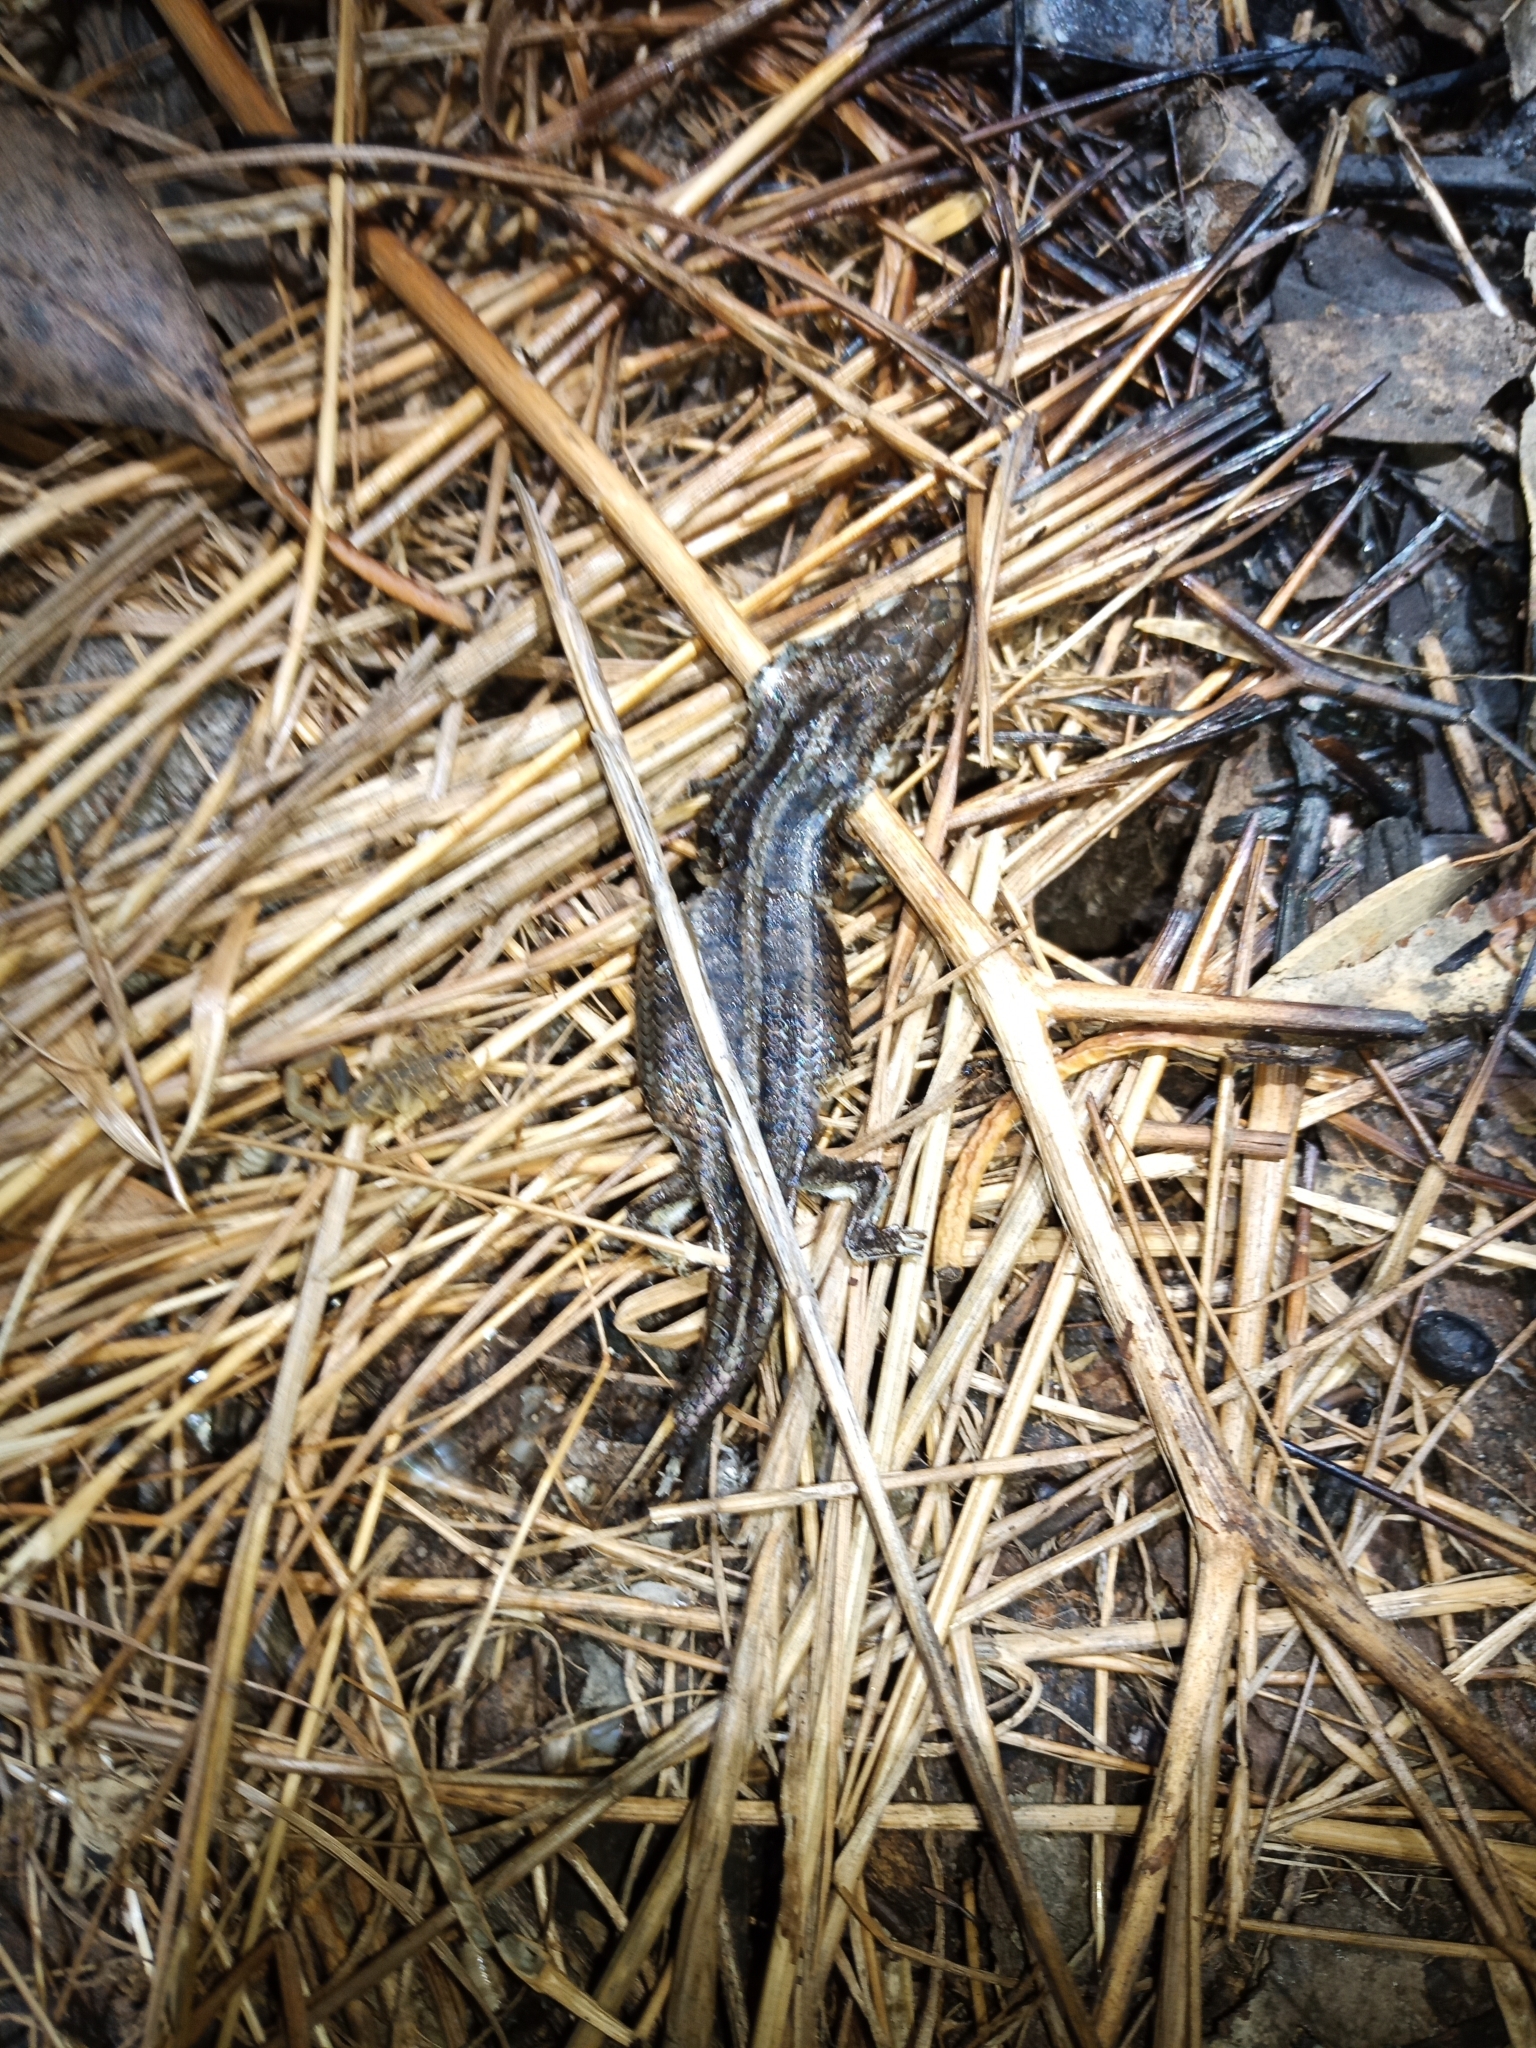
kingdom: Animalia
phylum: Chordata
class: Squamata
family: Scincidae
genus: Trachylepis
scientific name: Trachylepis capensis
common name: Cape skink
